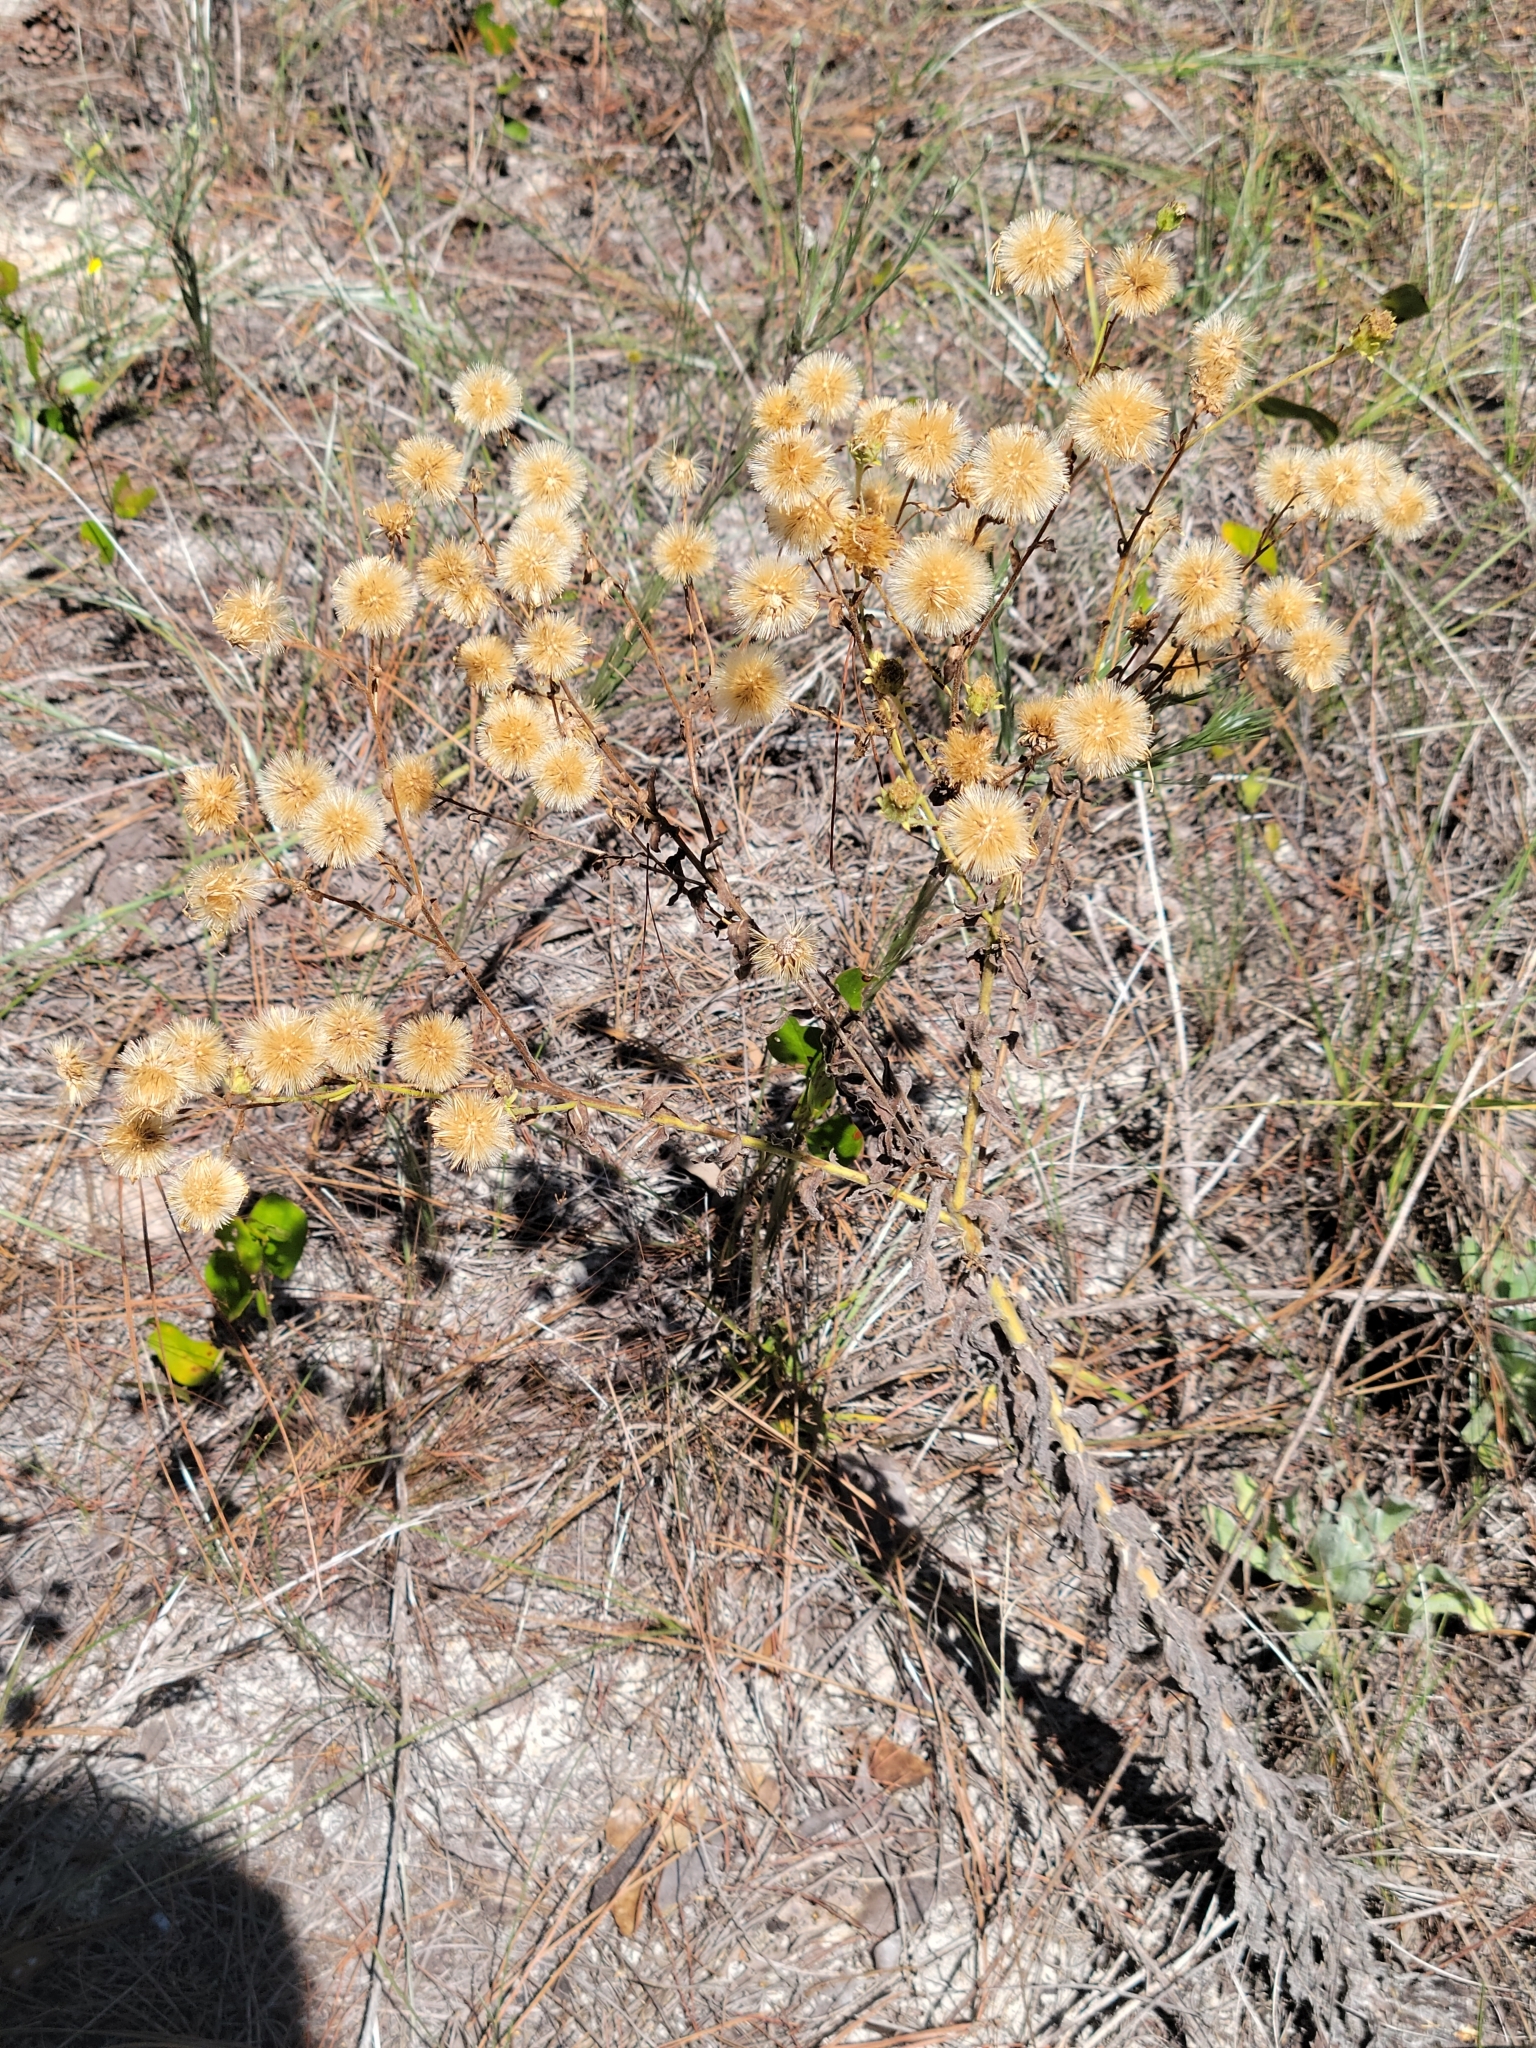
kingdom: Plantae
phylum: Tracheophyta
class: Magnoliopsida
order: Asterales
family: Asteraceae
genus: Chrysopsis
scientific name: Chrysopsis latisquamea
